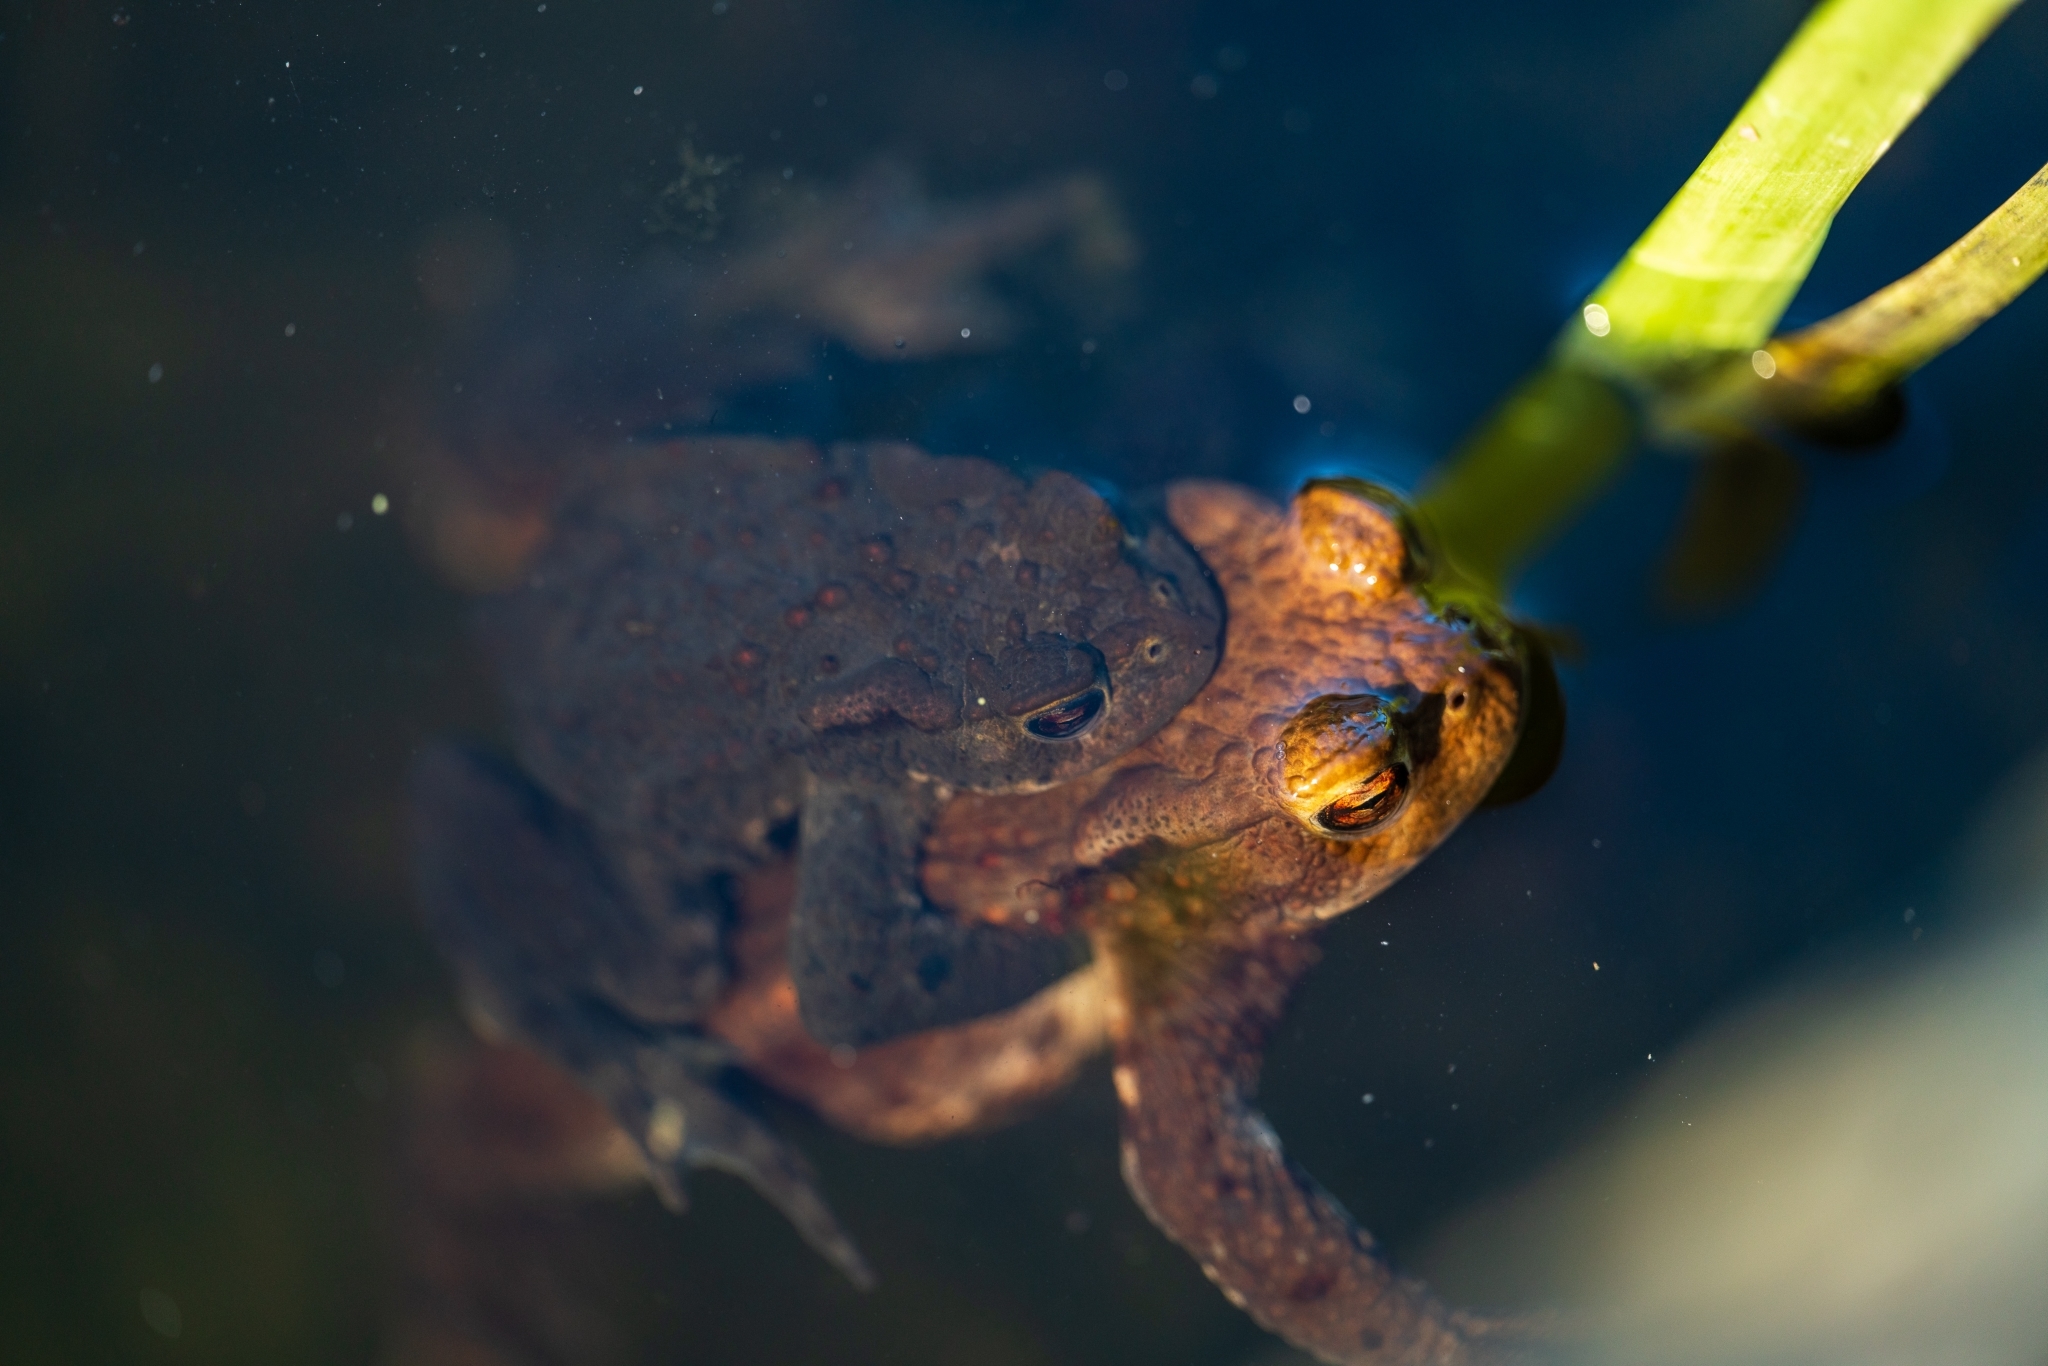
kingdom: Animalia
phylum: Chordata
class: Amphibia
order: Anura
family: Bufonidae
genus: Bufo
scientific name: Bufo bufo
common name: Common toad
